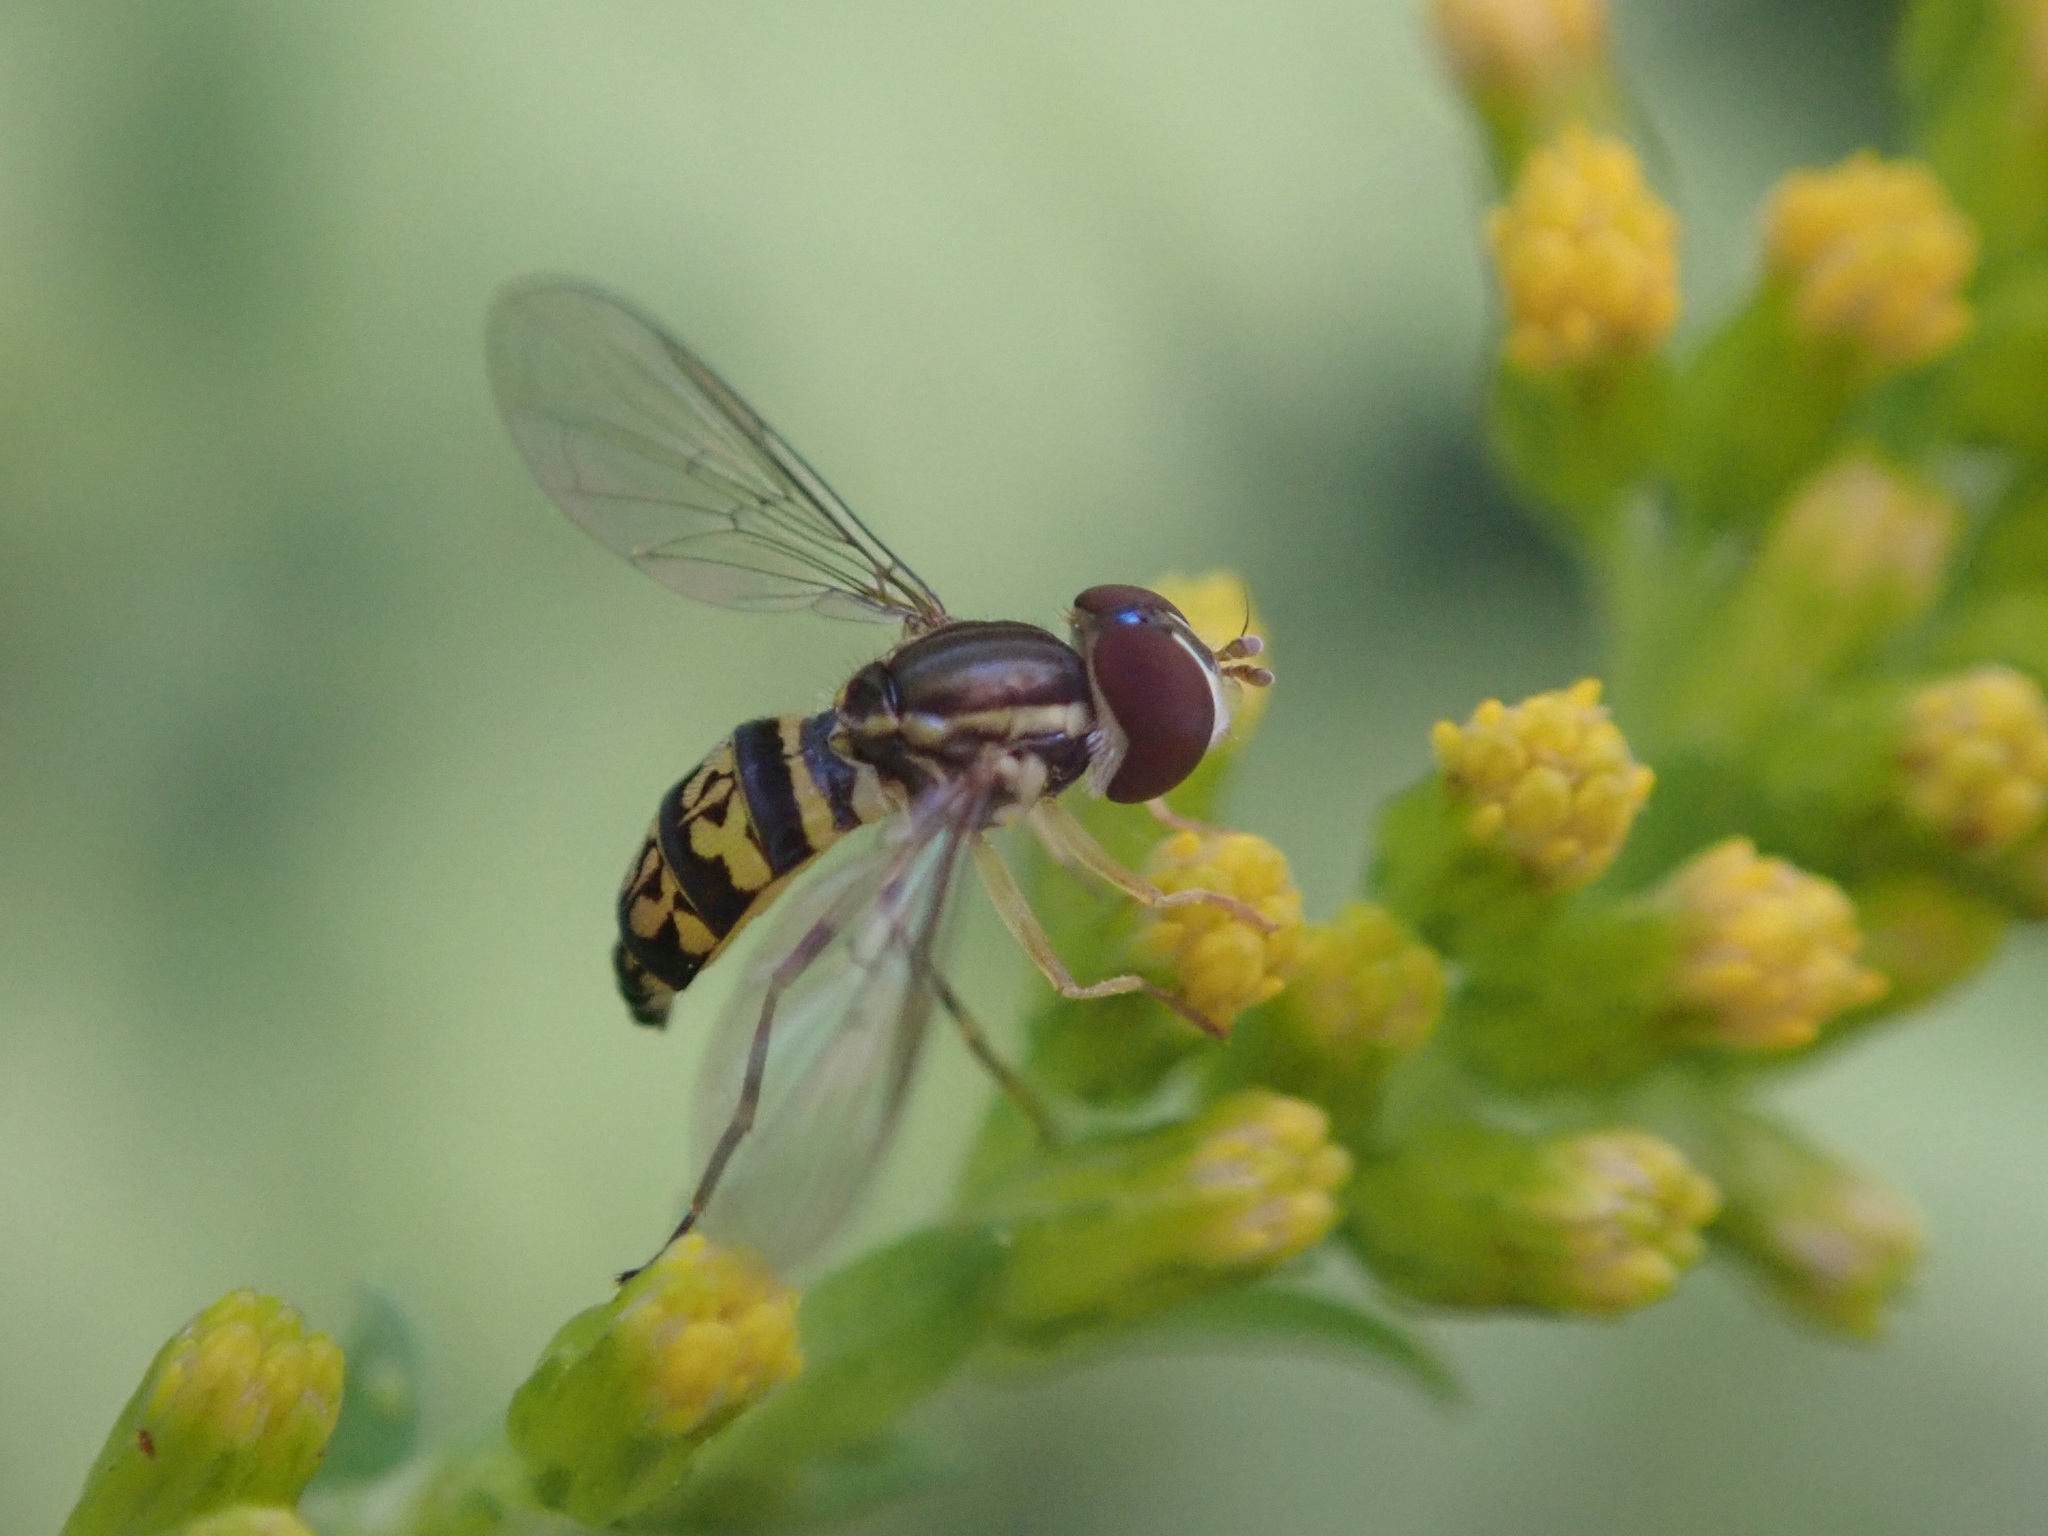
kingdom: Animalia
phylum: Arthropoda
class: Insecta
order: Diptera
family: Syrphidae
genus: Toxomerus
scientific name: Toxomerus geminatus
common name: Eastern calligrapher
